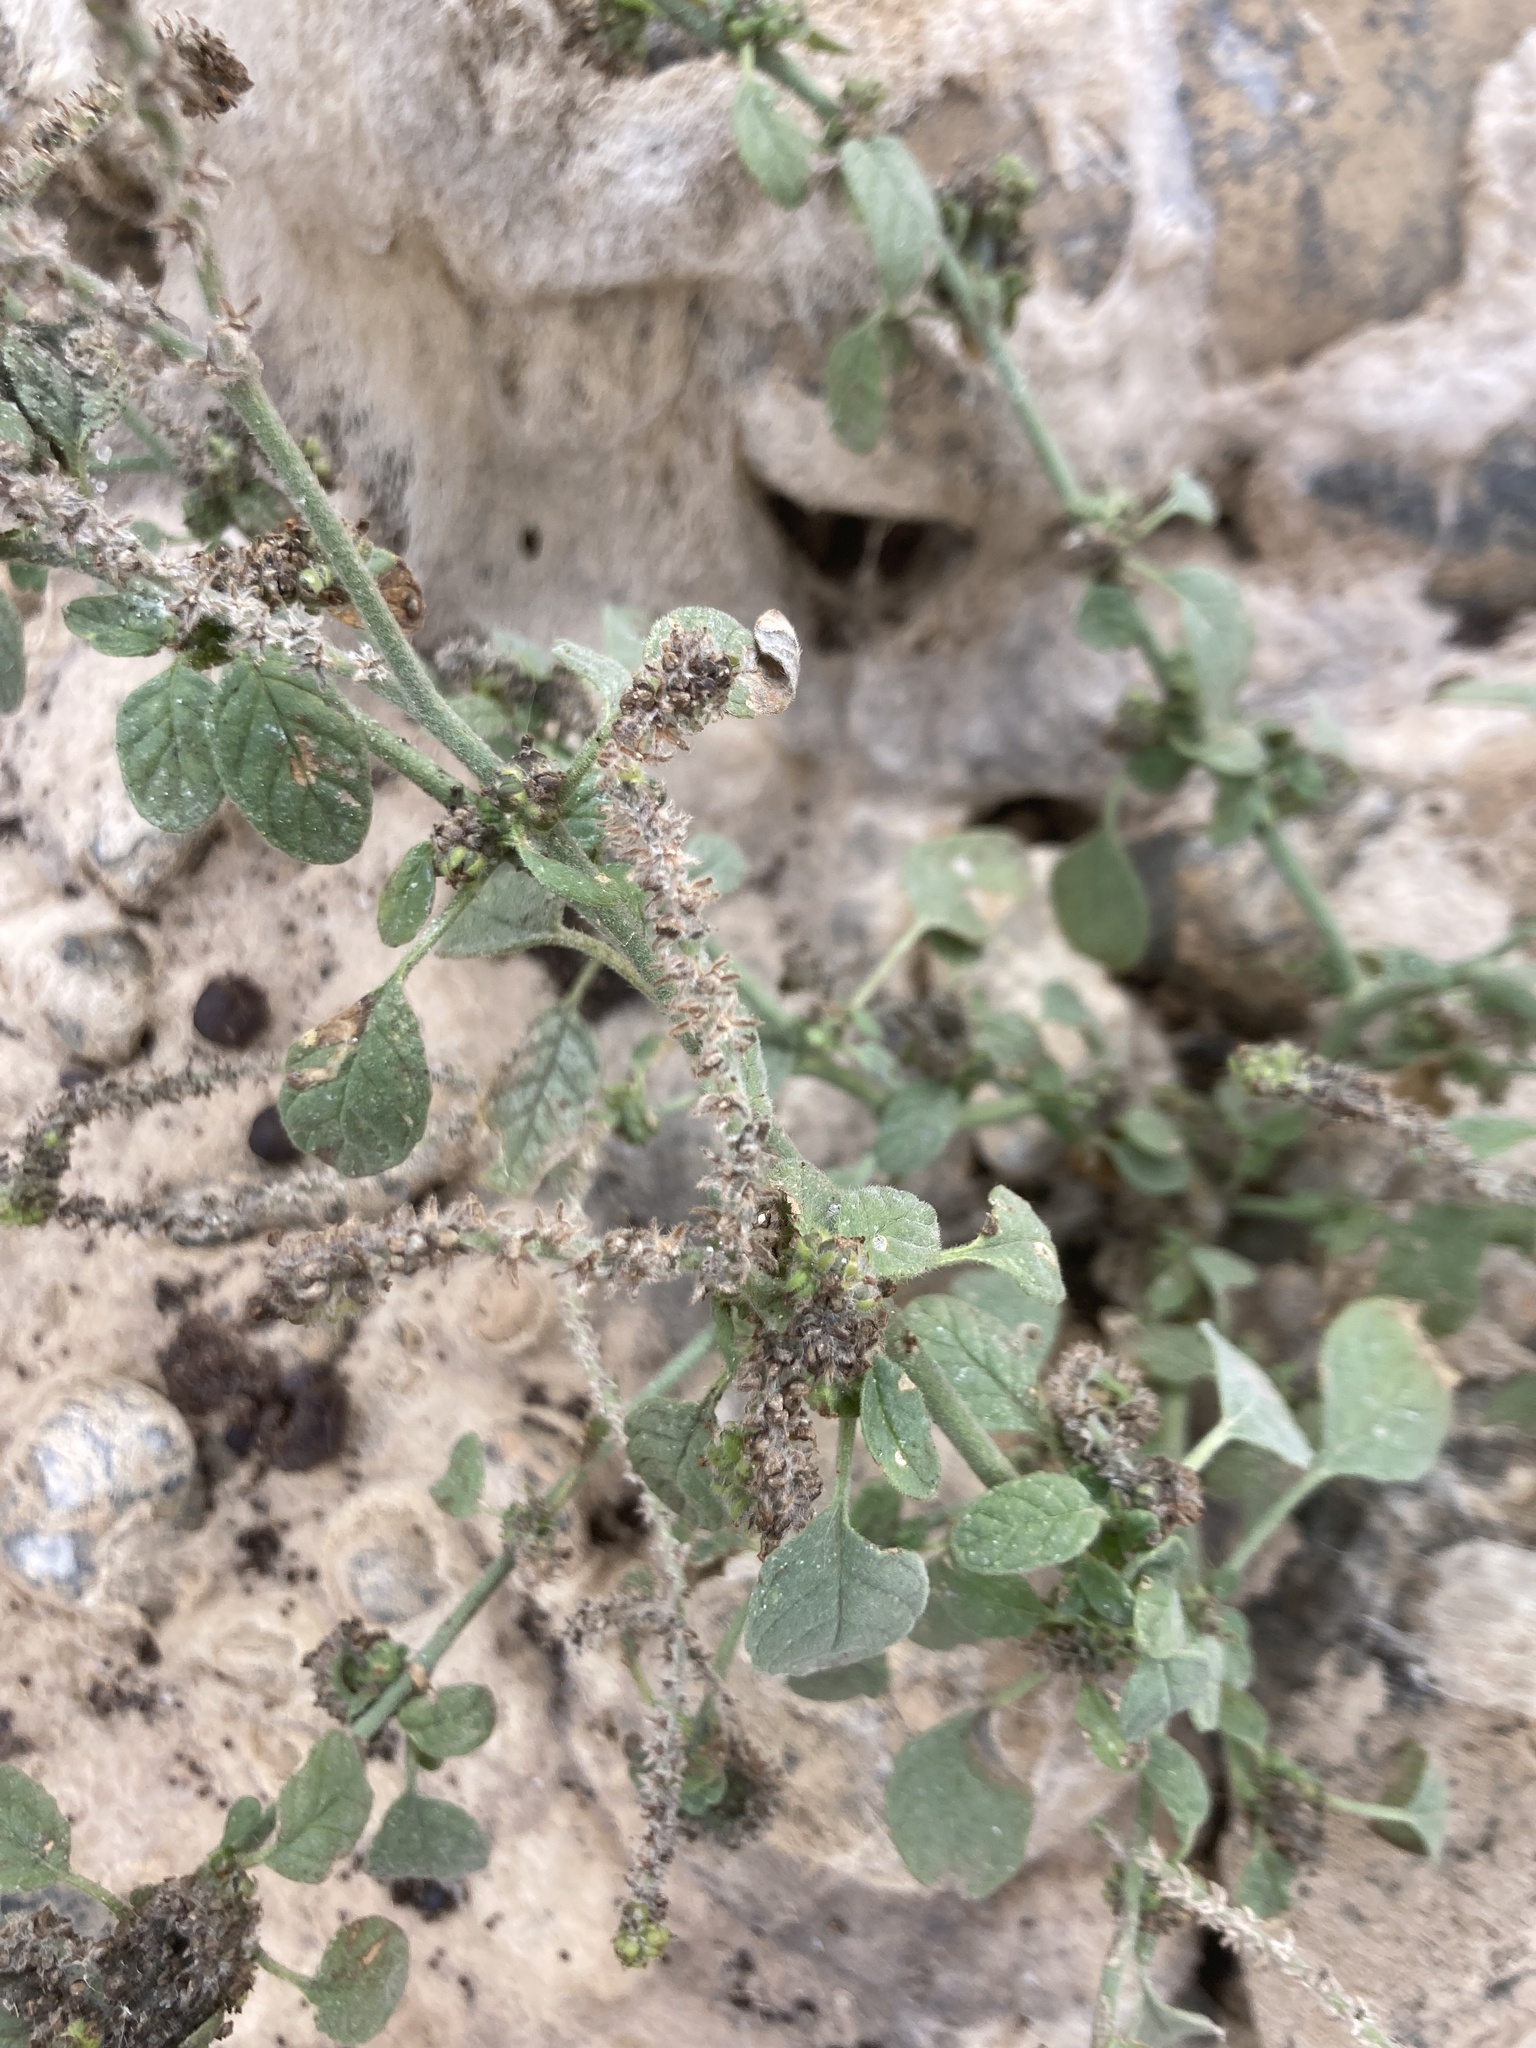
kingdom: Plantae
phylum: Tracheophyta
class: Magnoliopsida
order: Boraginales
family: Heliotropiaceae
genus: Heliotropium
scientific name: Heliotropium europaeum
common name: European heliotrope
